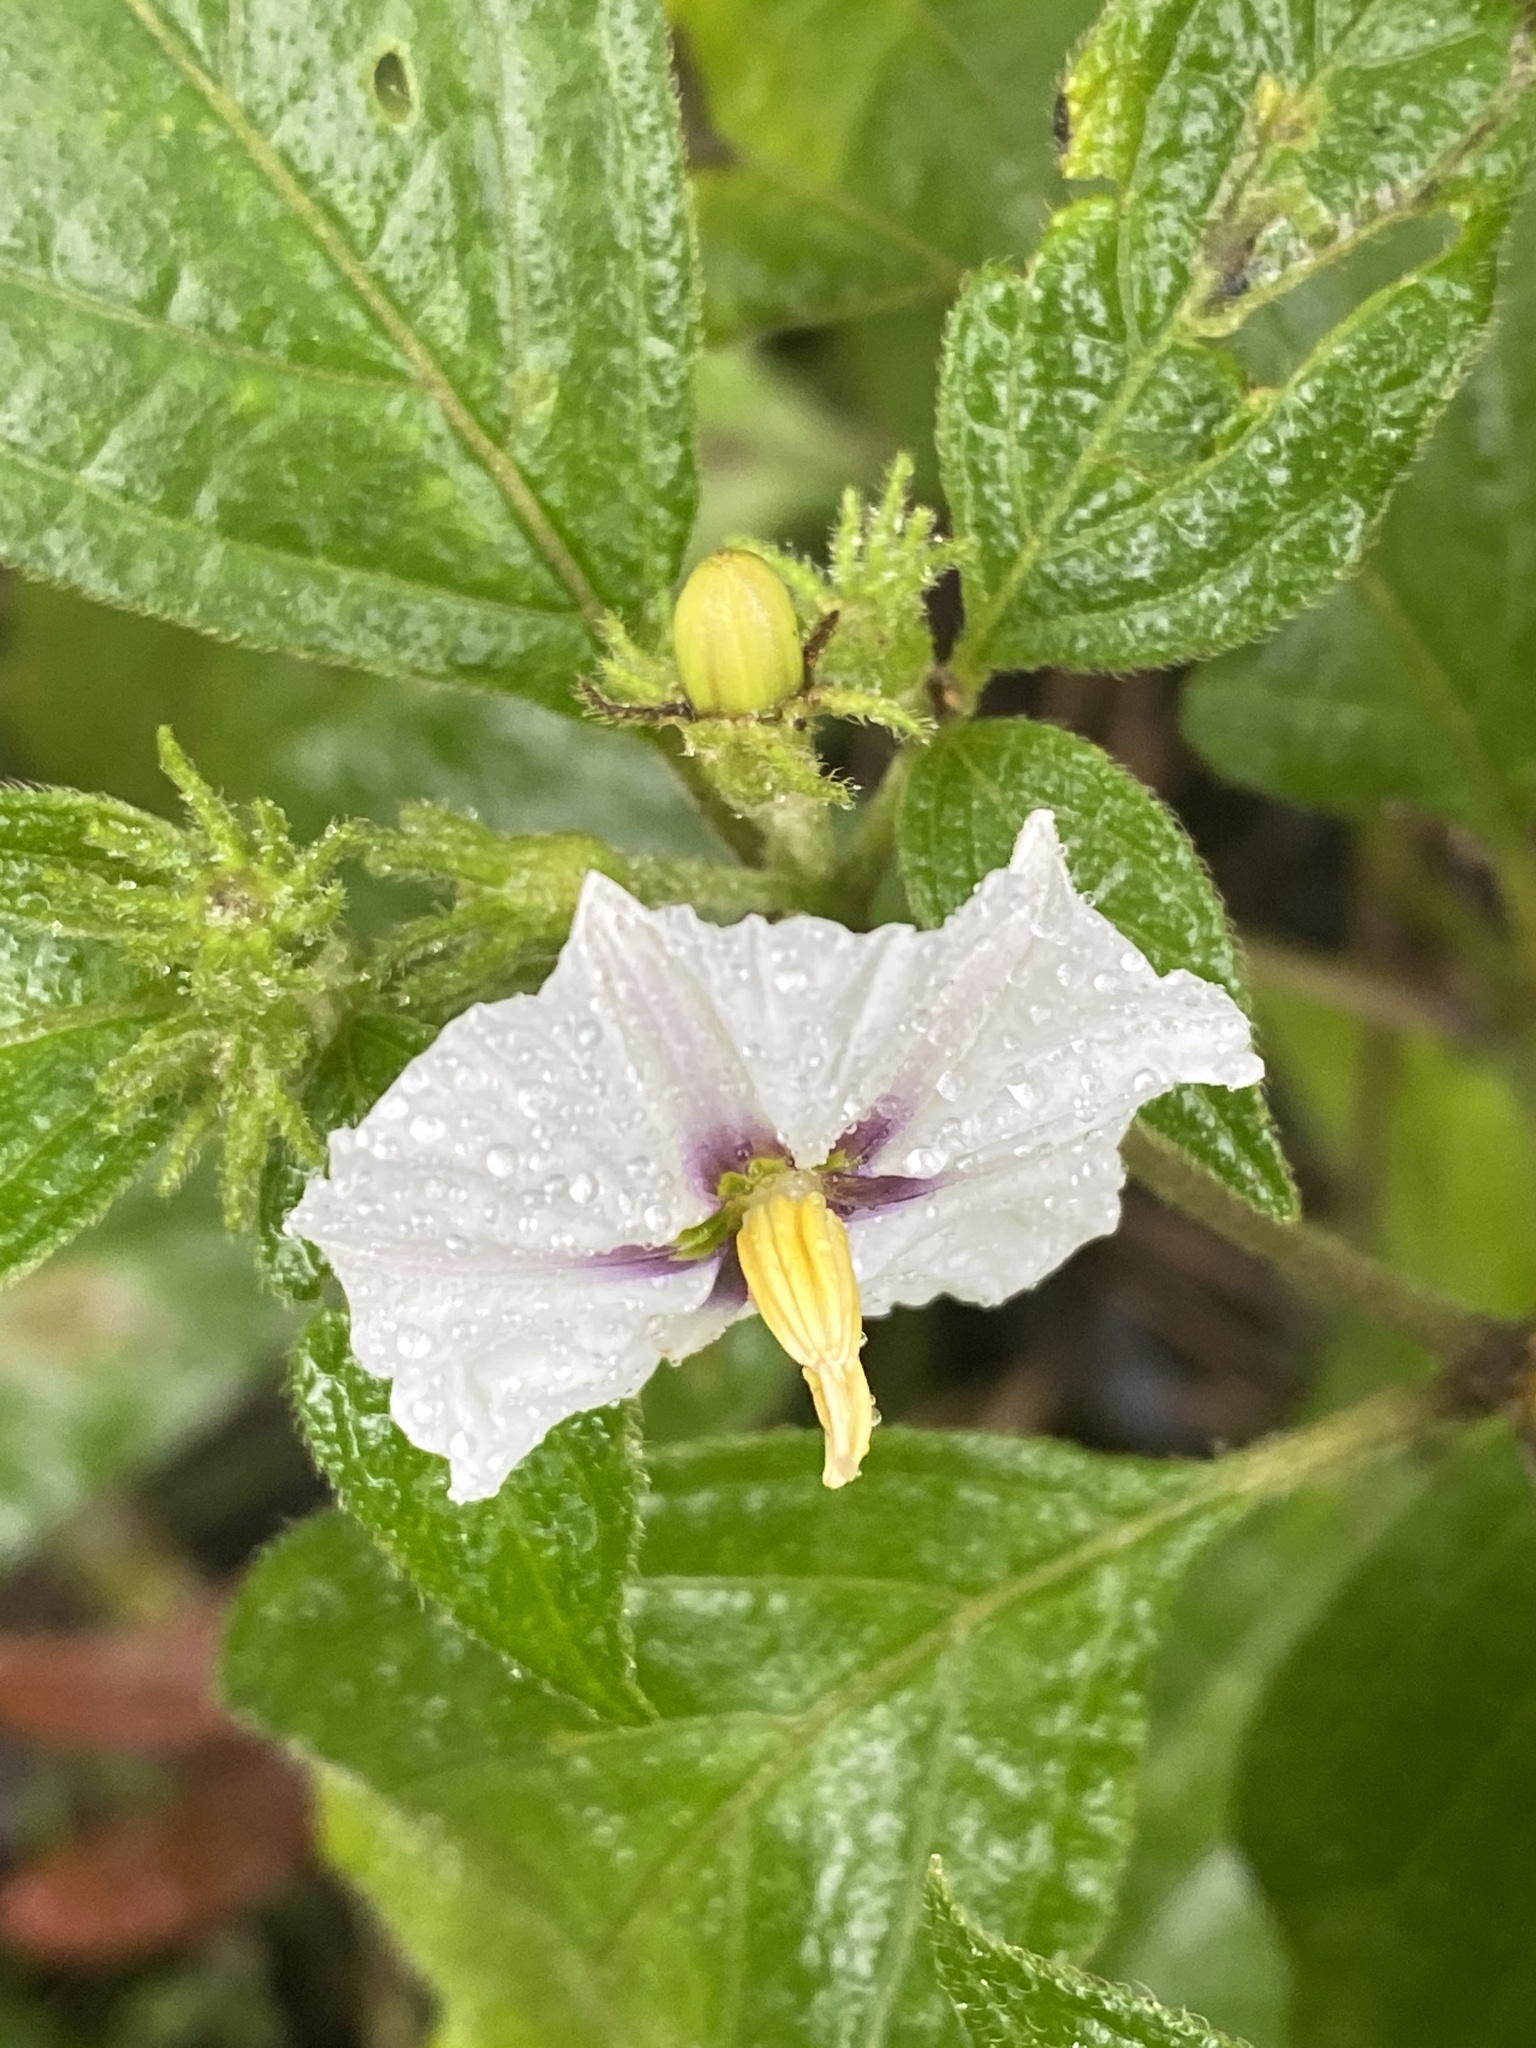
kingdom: Plantae
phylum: Tracheophyta
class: Magnoliopsida
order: Solanales
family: Solanaceae
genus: Lycianthes
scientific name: Lycianthes tricolor
